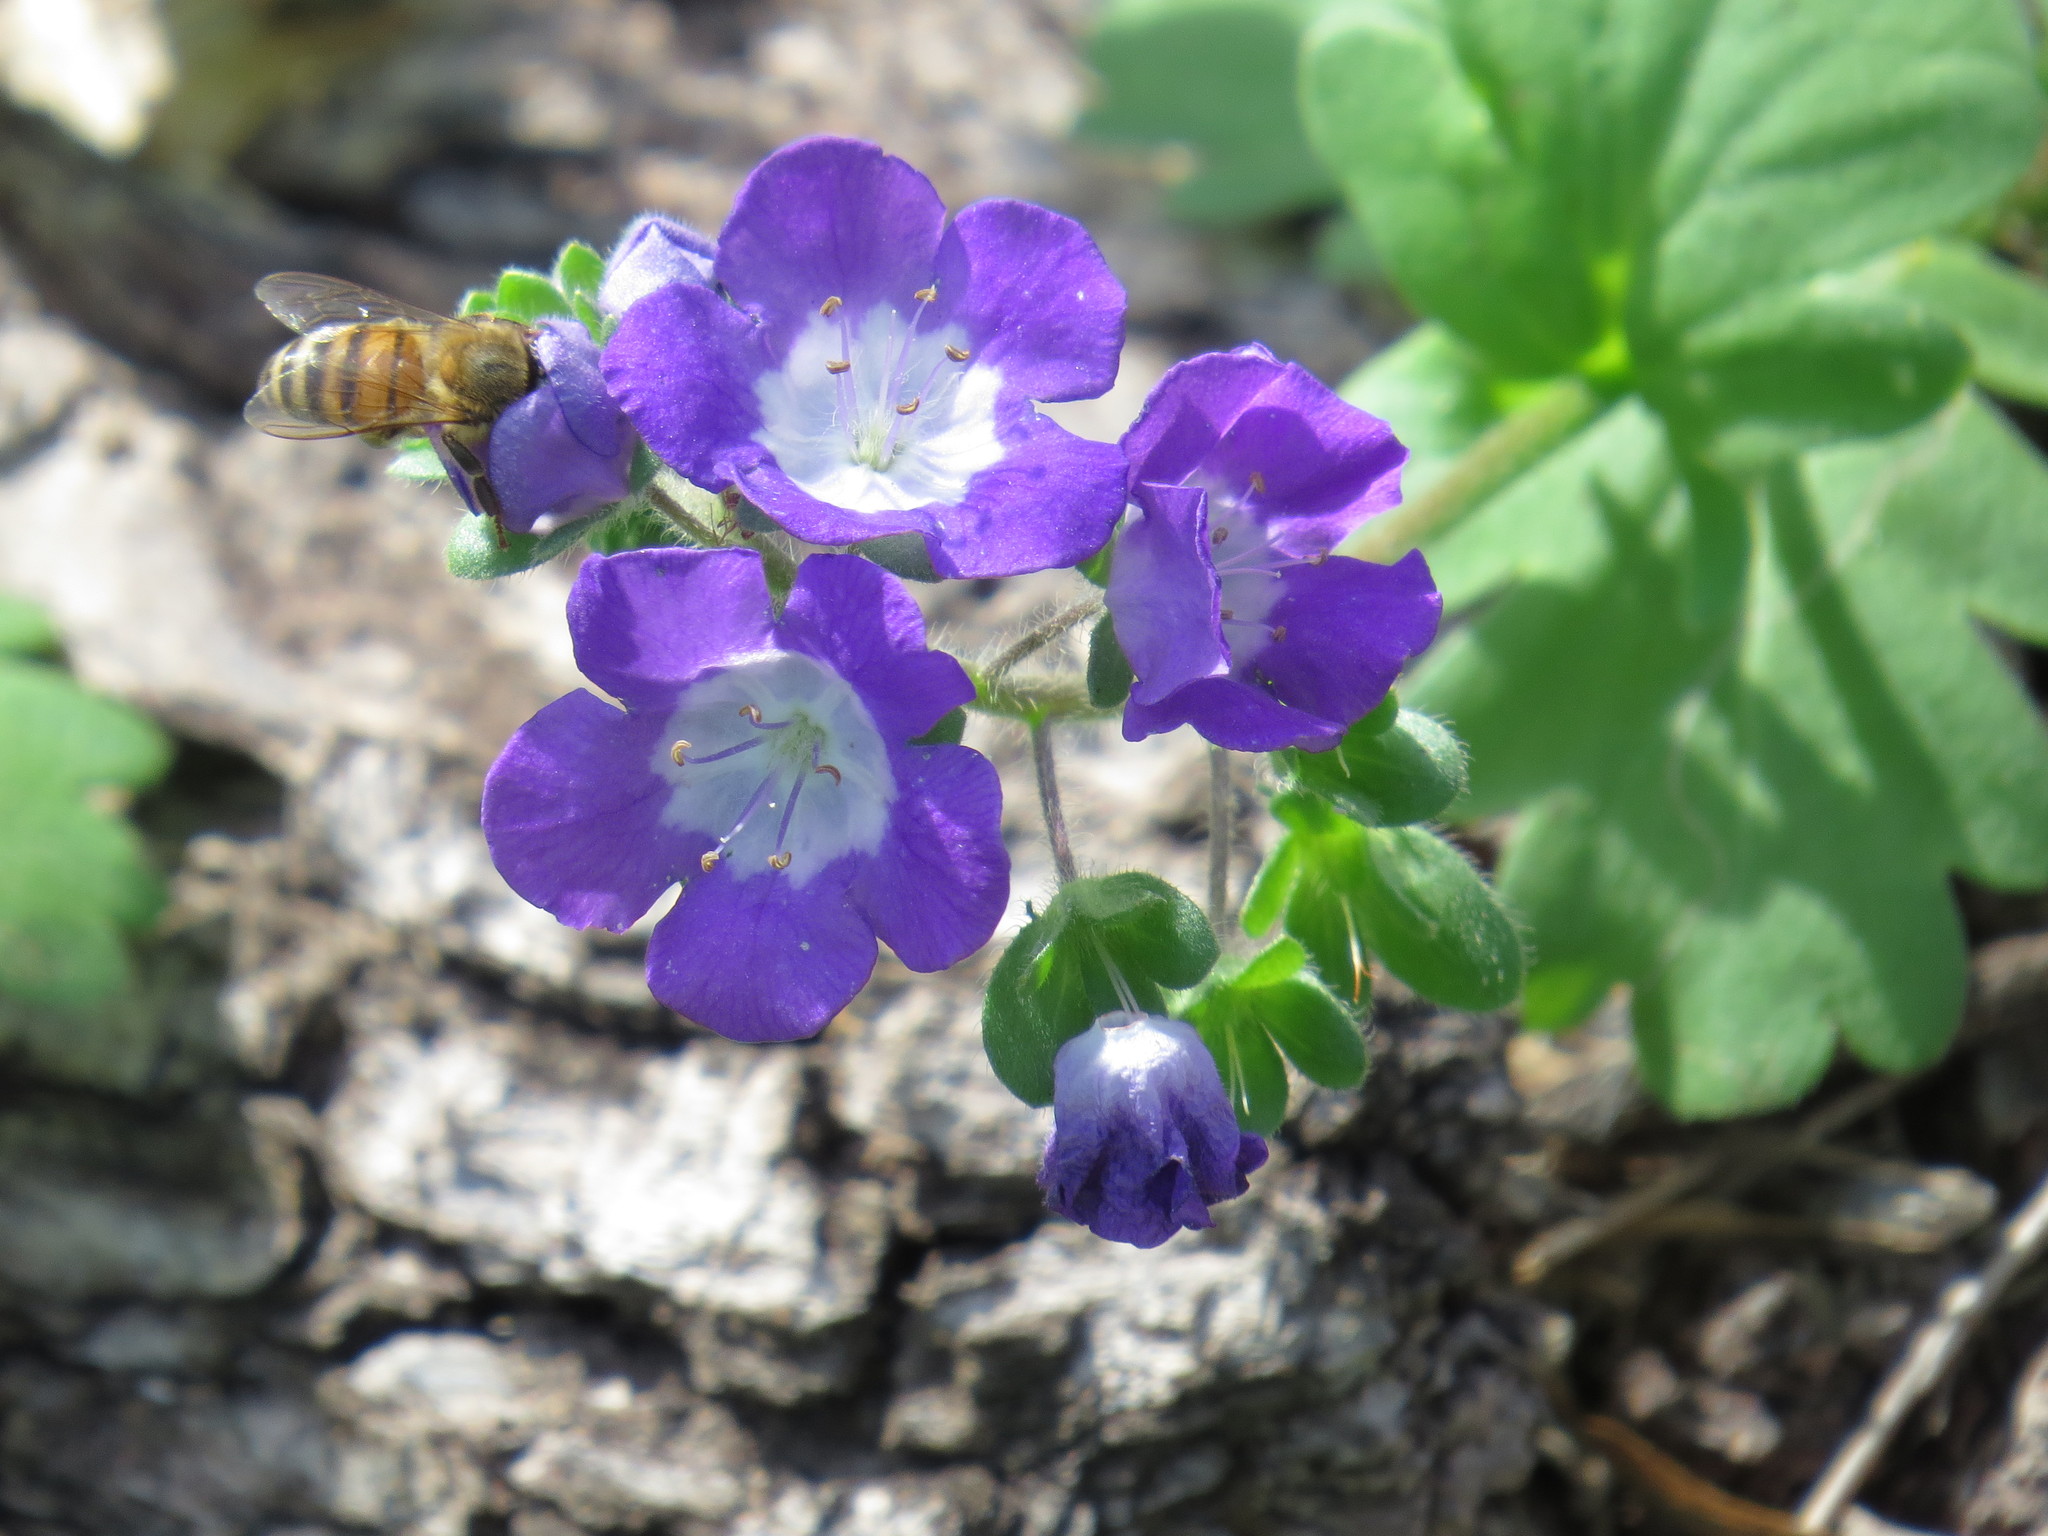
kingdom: Plantae
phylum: Tracheophyta
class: Magnoliopsida
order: Boraginales
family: Hydrophyllaceae
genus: Phacelia
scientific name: Phacelia patuliflora
